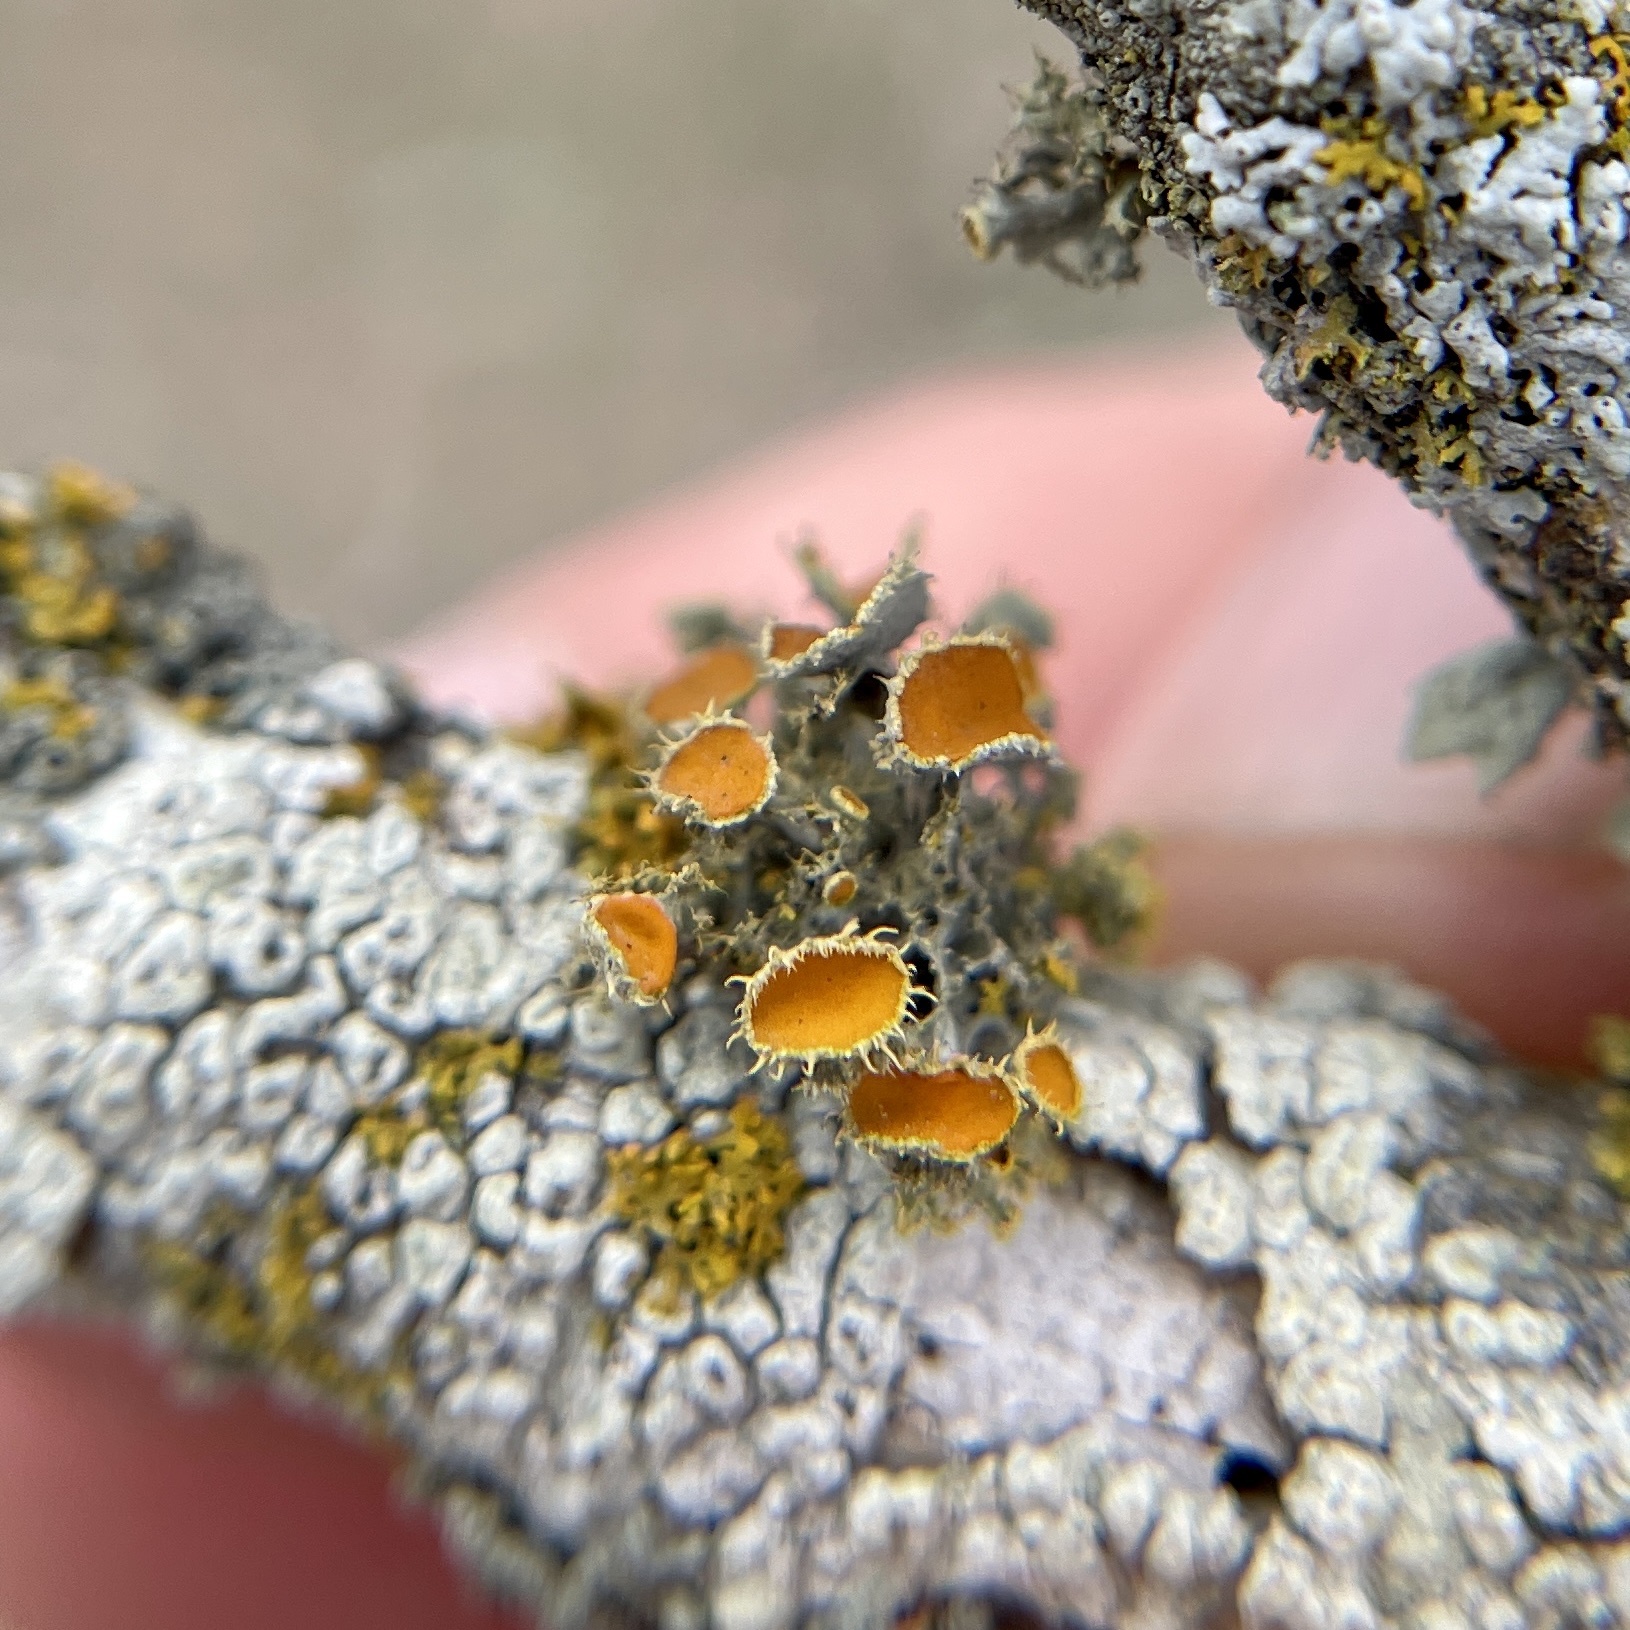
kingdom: Fungi
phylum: Ascomycota
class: Lecanoromycetes
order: Teloschistales
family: Teloschistaceae
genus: Niorma
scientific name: Niorma chrysophthalma
